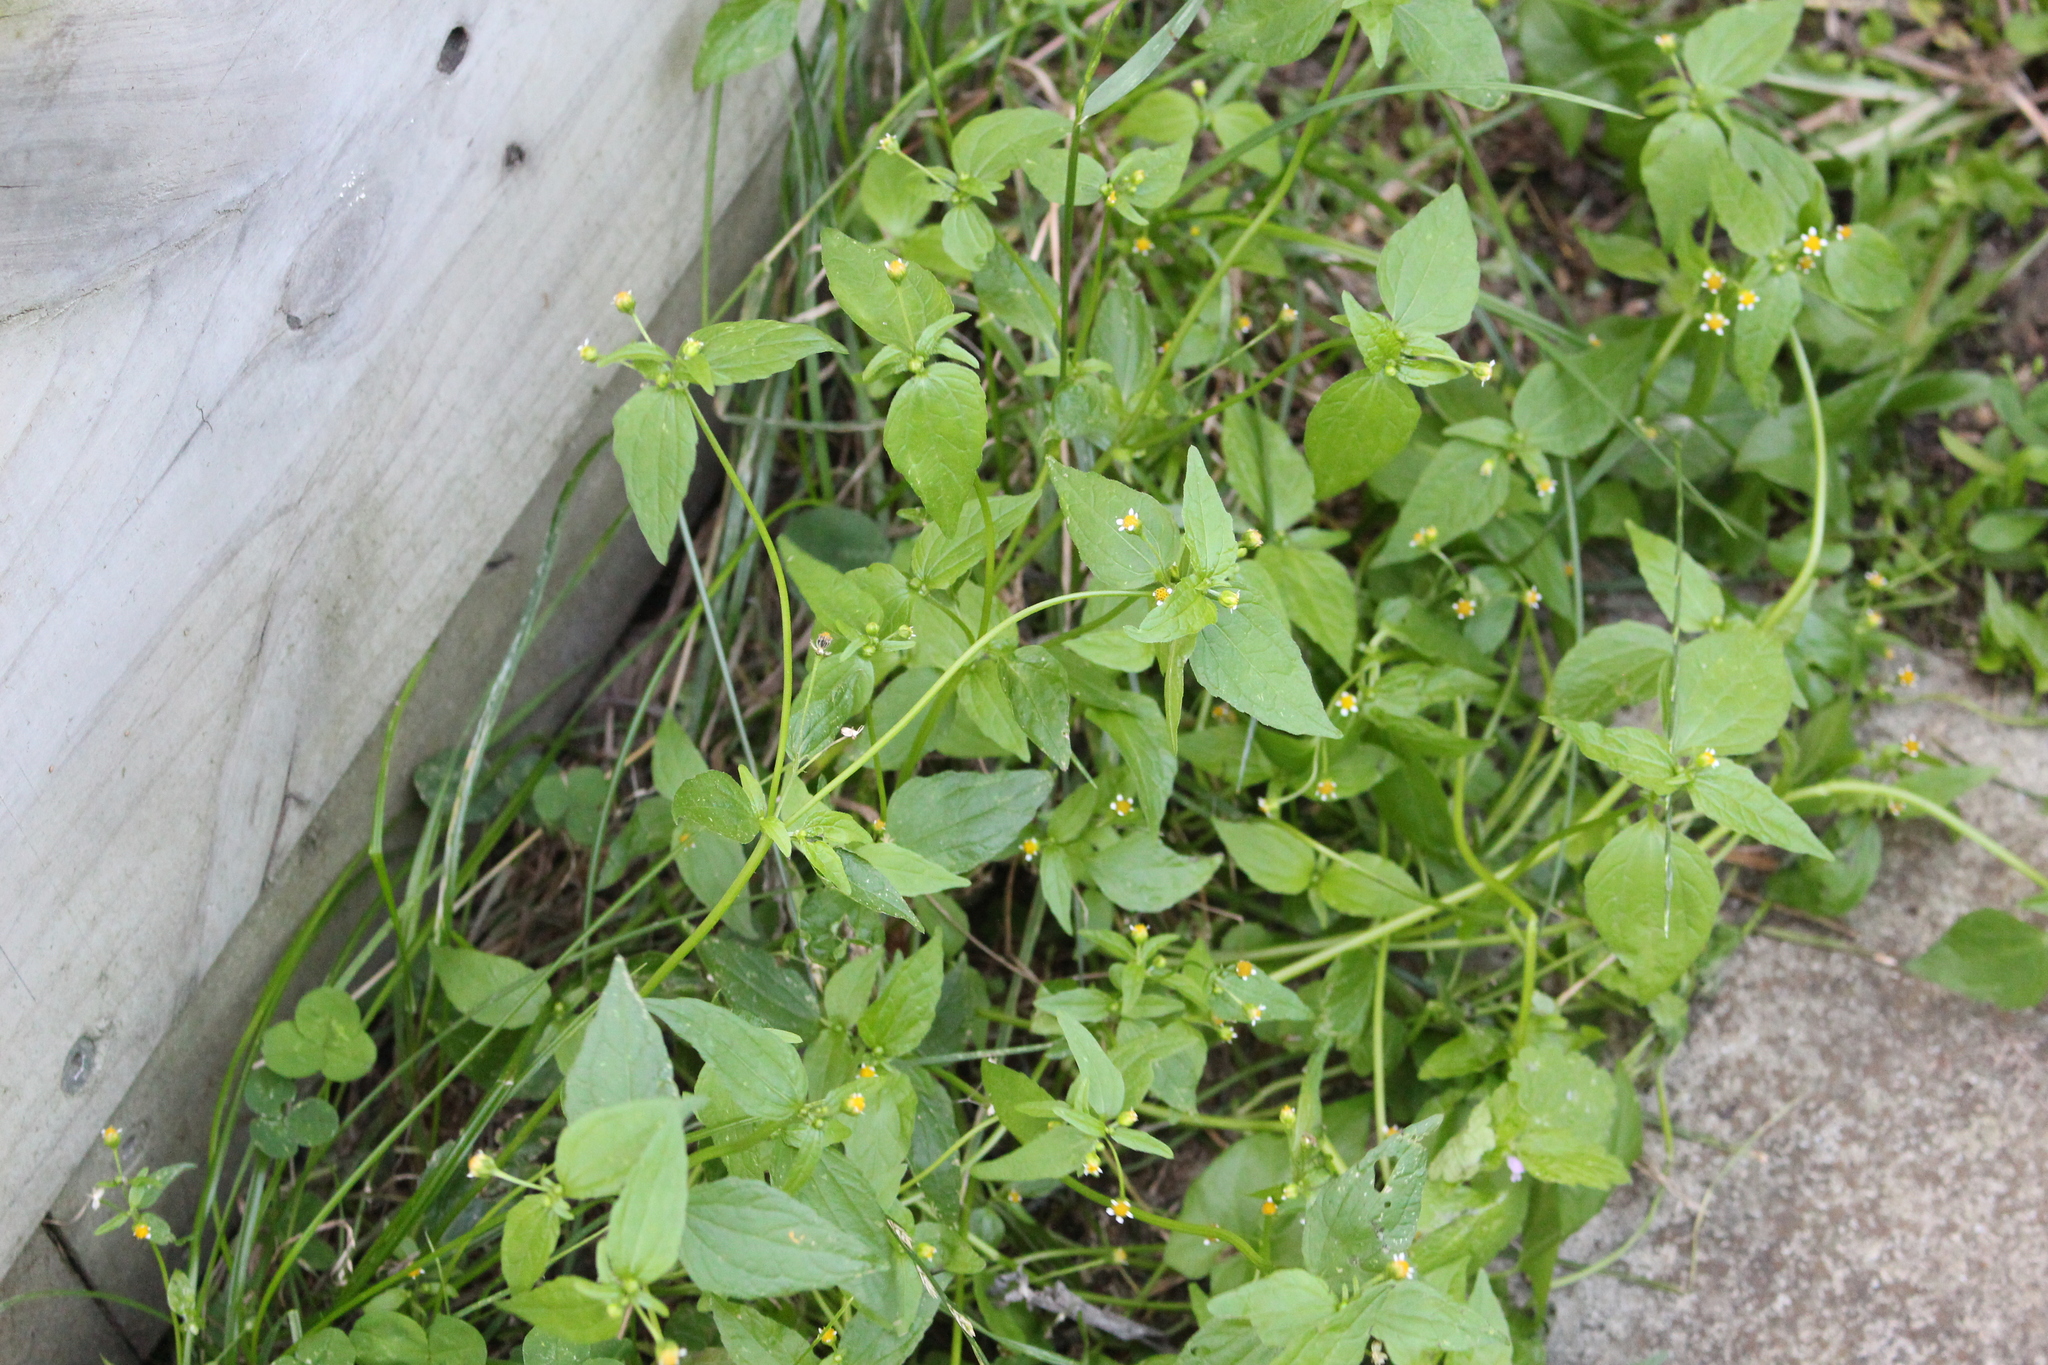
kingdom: Plantae
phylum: Tracheophyta
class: Magnoliopsida
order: Asterales
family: Asteraceae
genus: Galinsoga
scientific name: Galinsoga parviflora
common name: Gallant soldier
